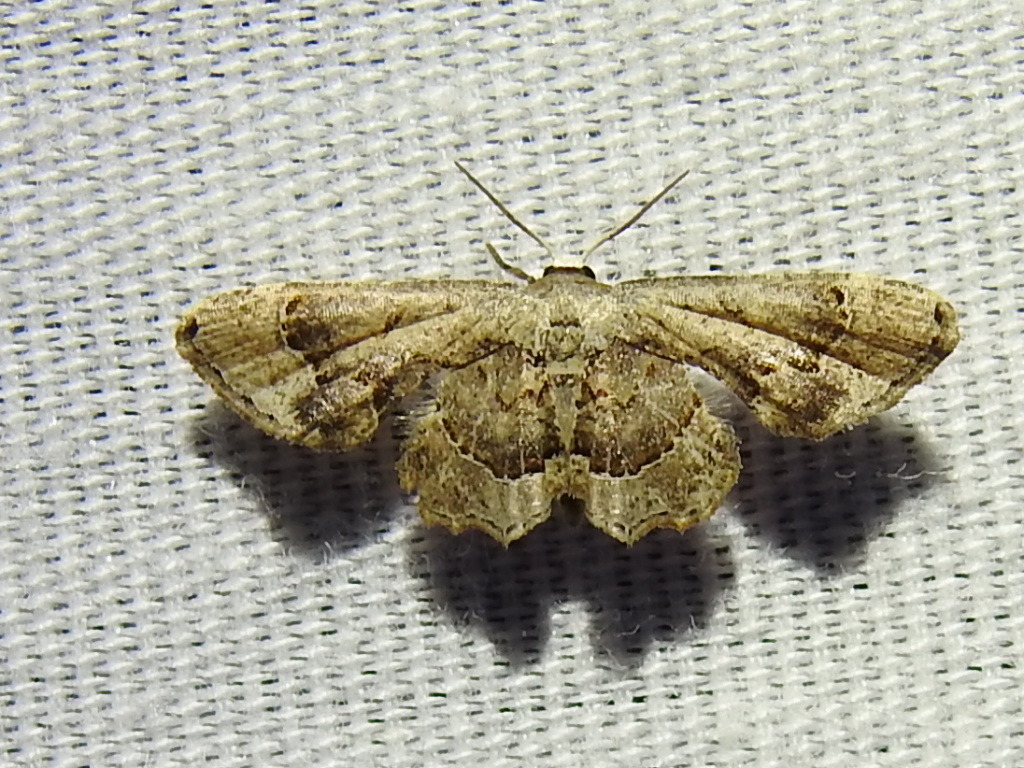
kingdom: Animalia
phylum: Arthropoda
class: Insecta
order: Lepidoptera
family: Uraniidae
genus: Antiplecta
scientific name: Antiplecta triangularis
